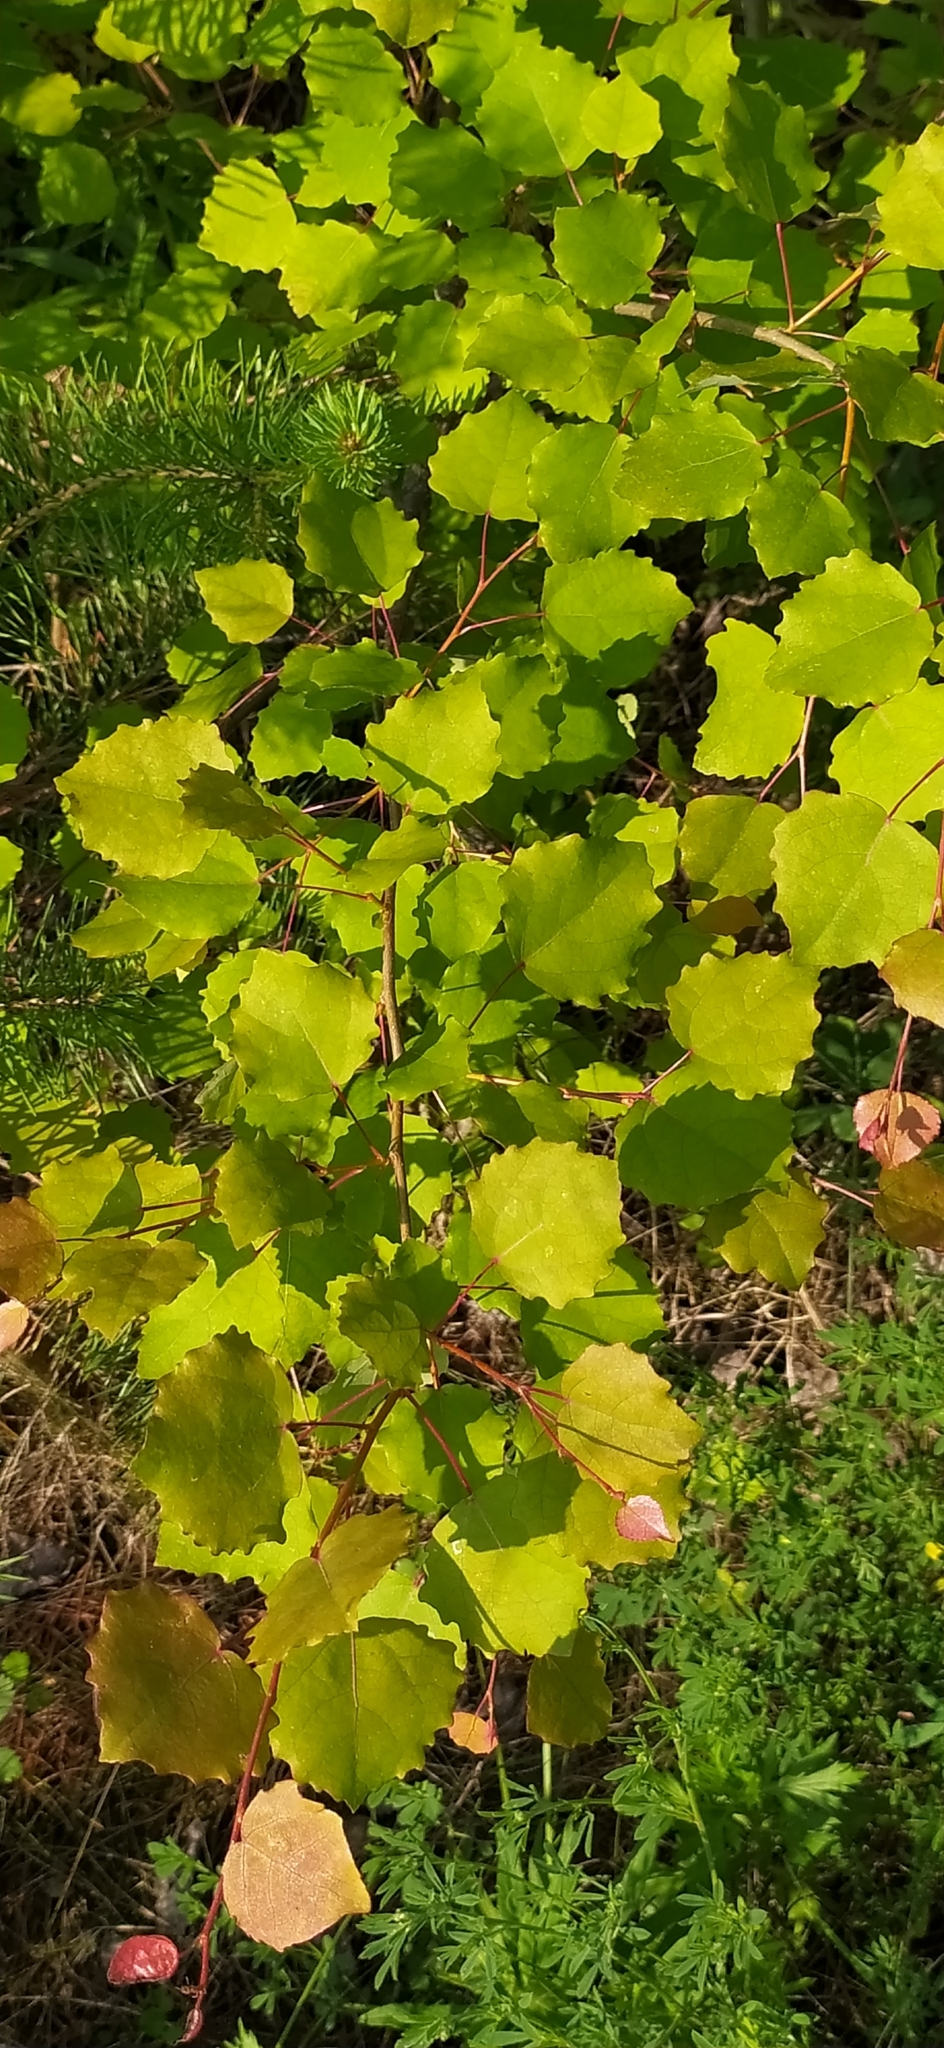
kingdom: Plantae
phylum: Tracheophyta
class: Magnoliopsida
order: Malpighiales
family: Salicaceae
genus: Populus
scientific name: Populus tremula
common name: European aspen
